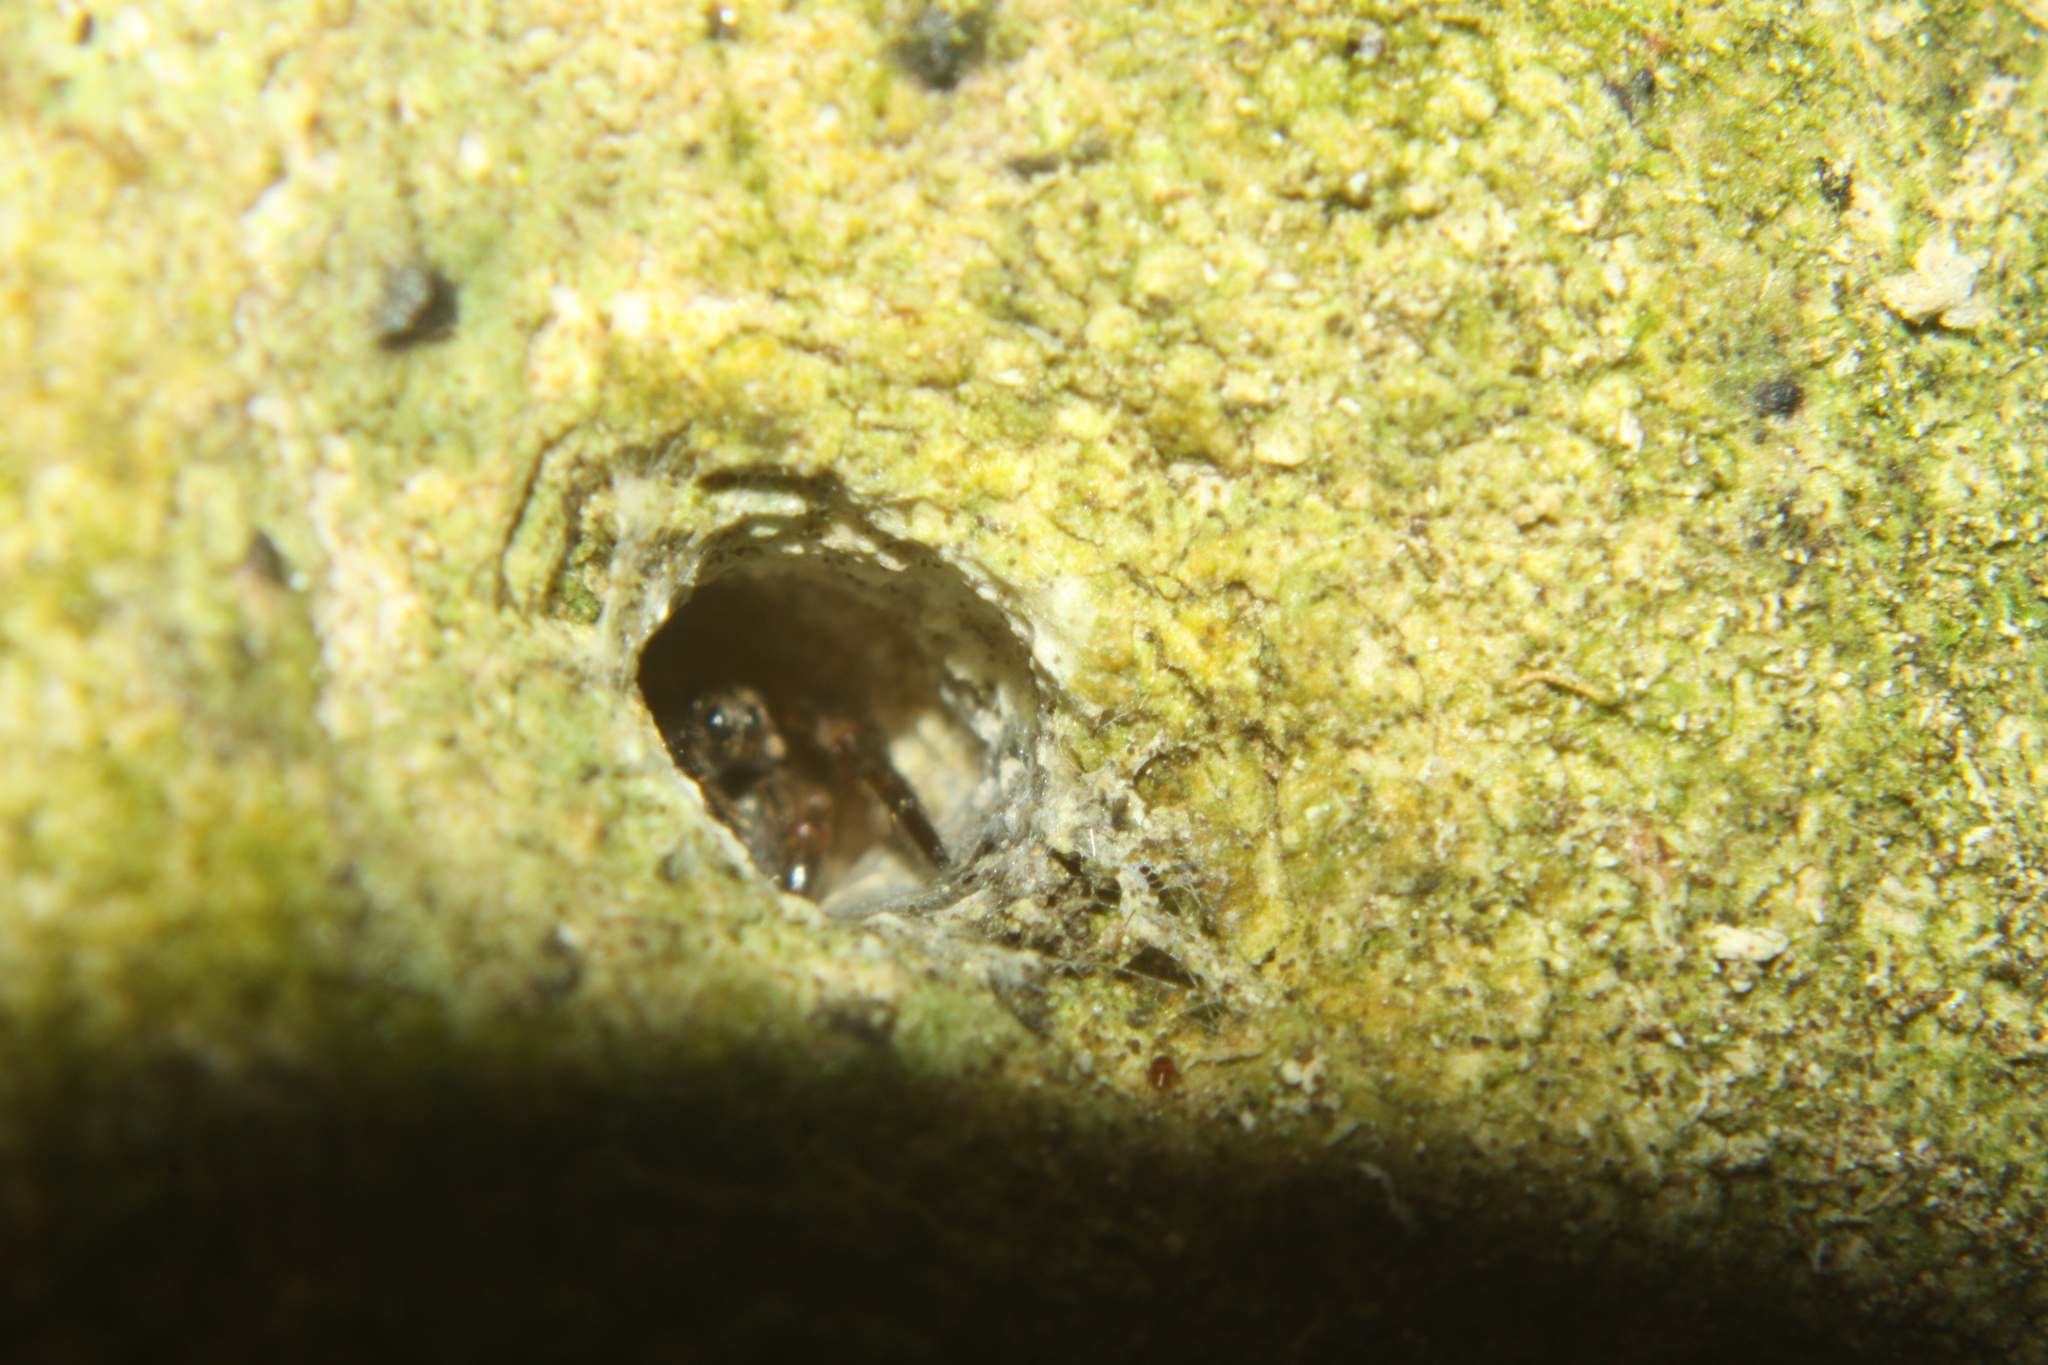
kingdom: Animalia
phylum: Arthropoda
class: Arachnida
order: Araneae
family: Cycloctenidae
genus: Plectophanes
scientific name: Plectophanes
